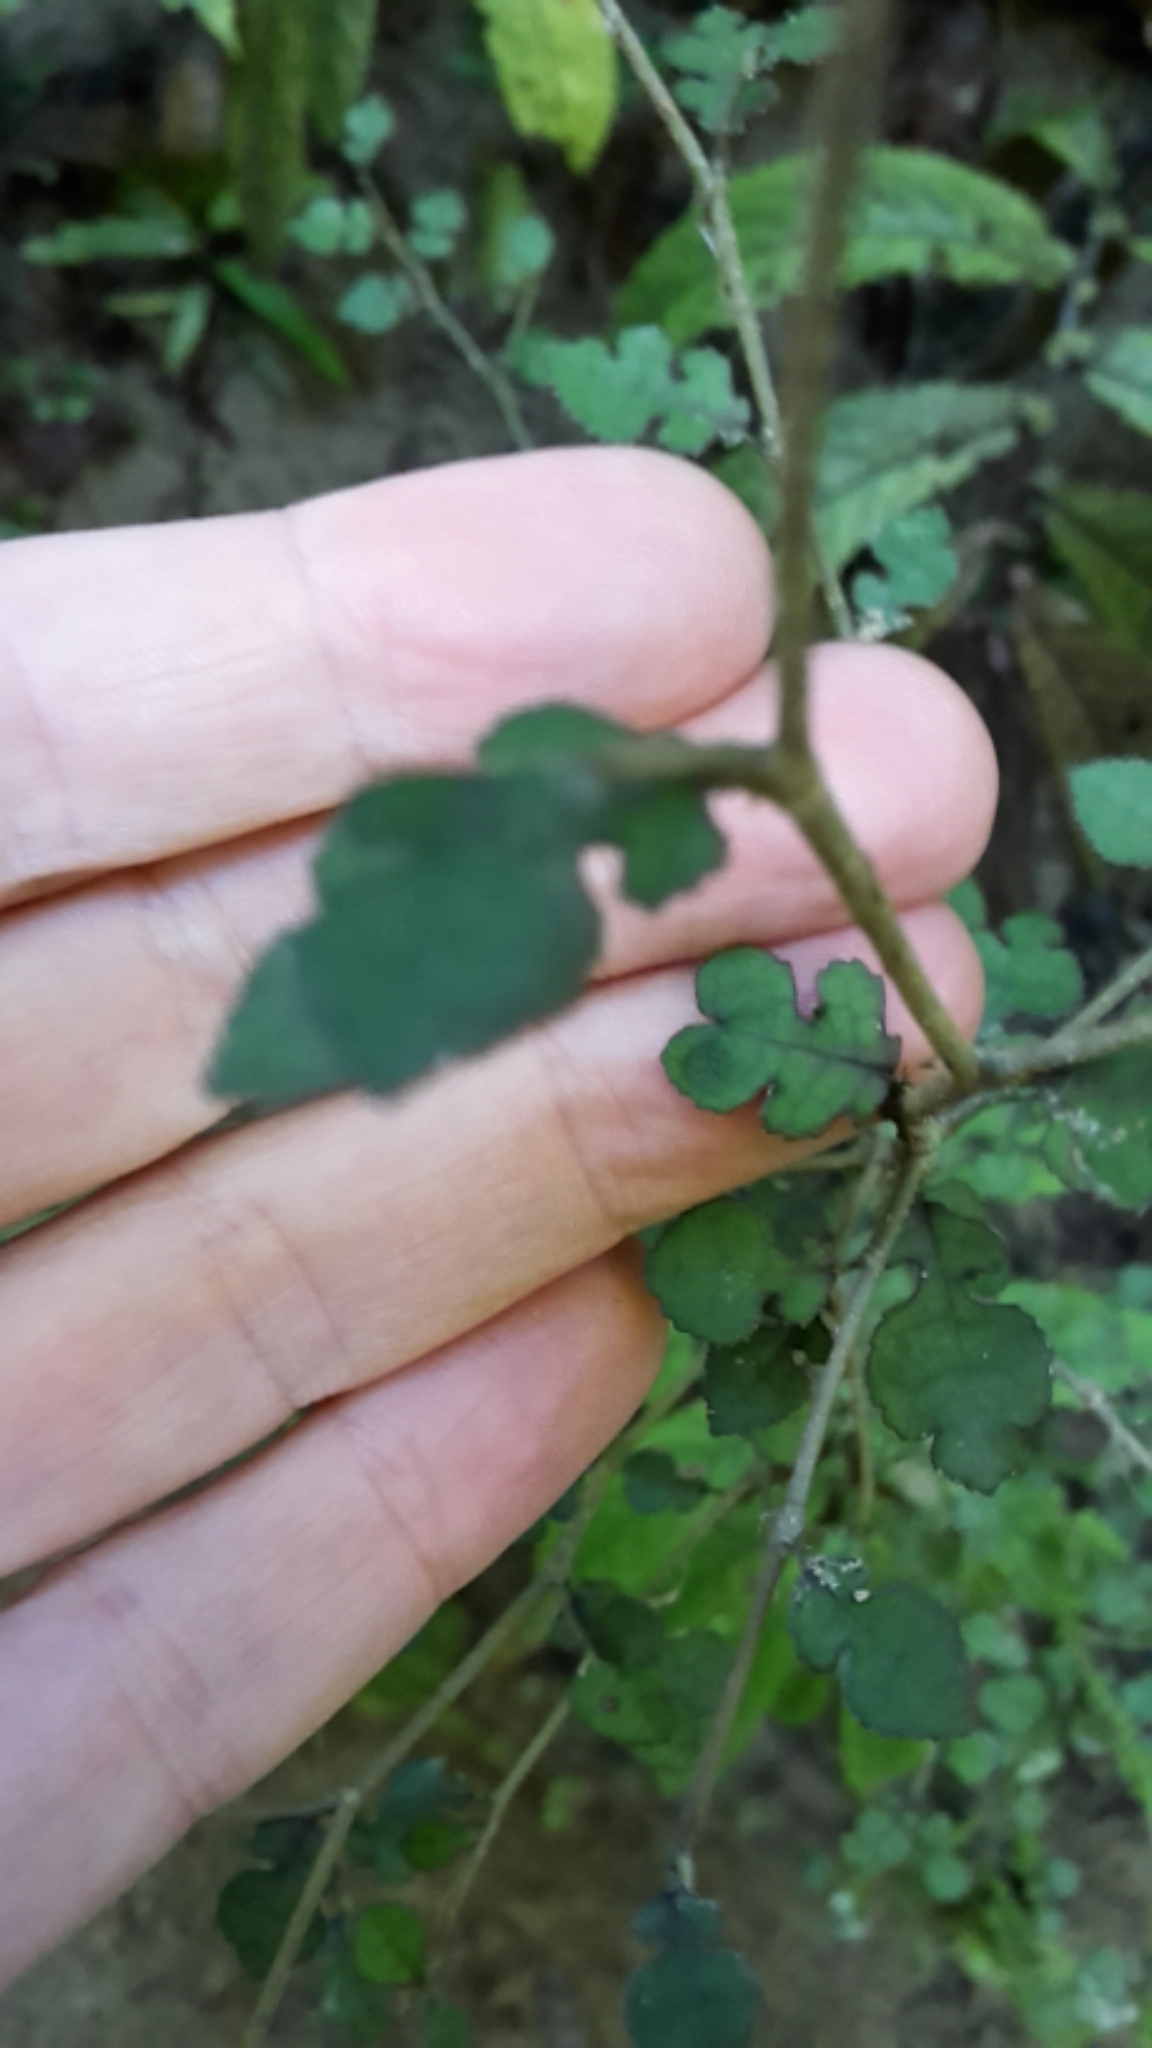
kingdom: Plantae
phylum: Tracheophyta
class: Magnoliopsida
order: Rosales
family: Moraceae
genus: Paratrophis
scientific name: Paratrophis microphylla
